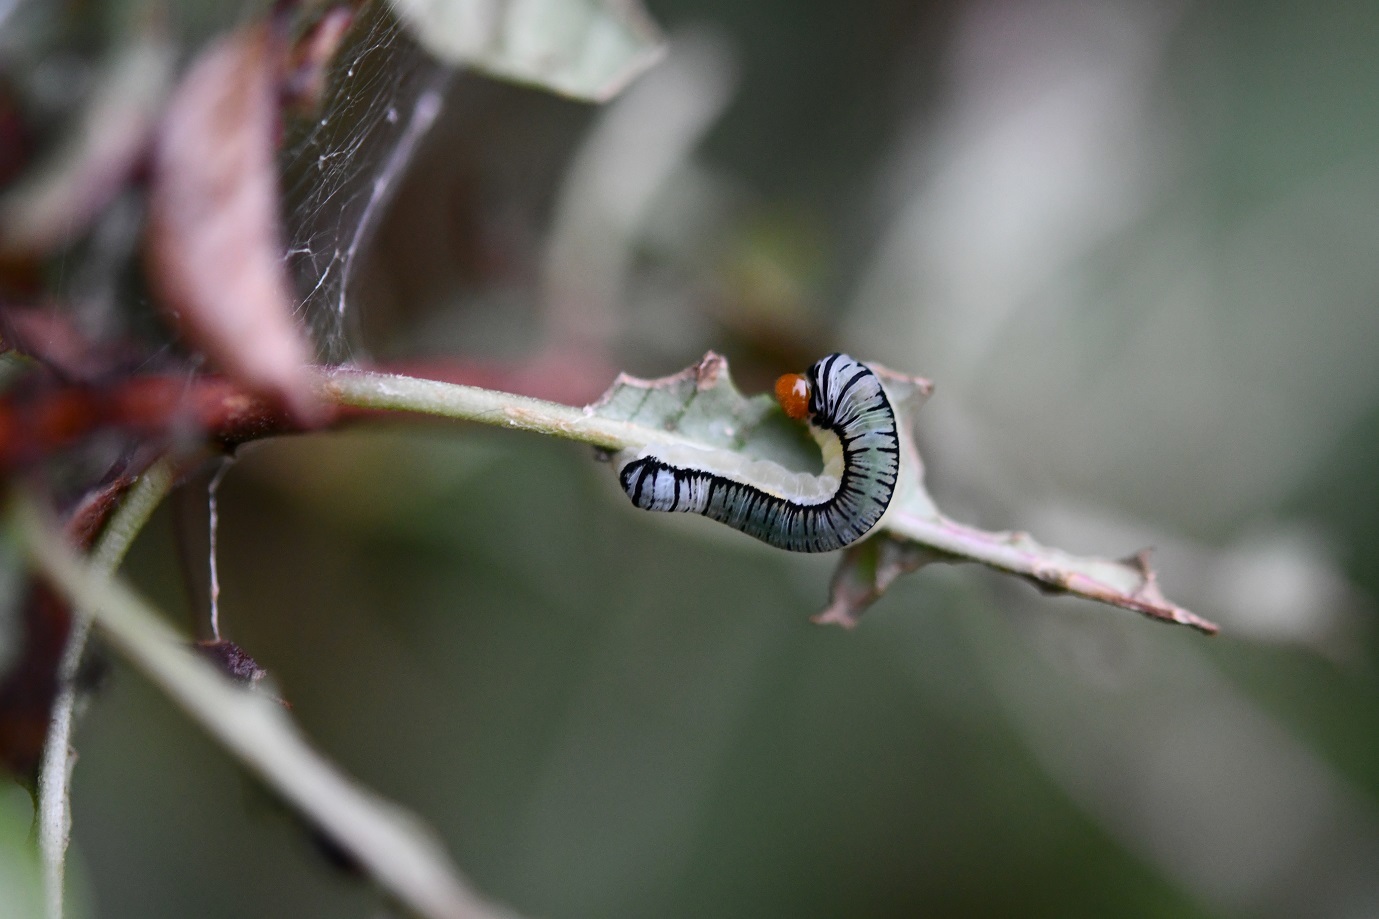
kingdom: Animalia
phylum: Arthropoda
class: Insecta
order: Lepidoptera
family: Erebidae
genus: Diphthera
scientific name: Diphthera festiva
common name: Hieroglyphic moth
